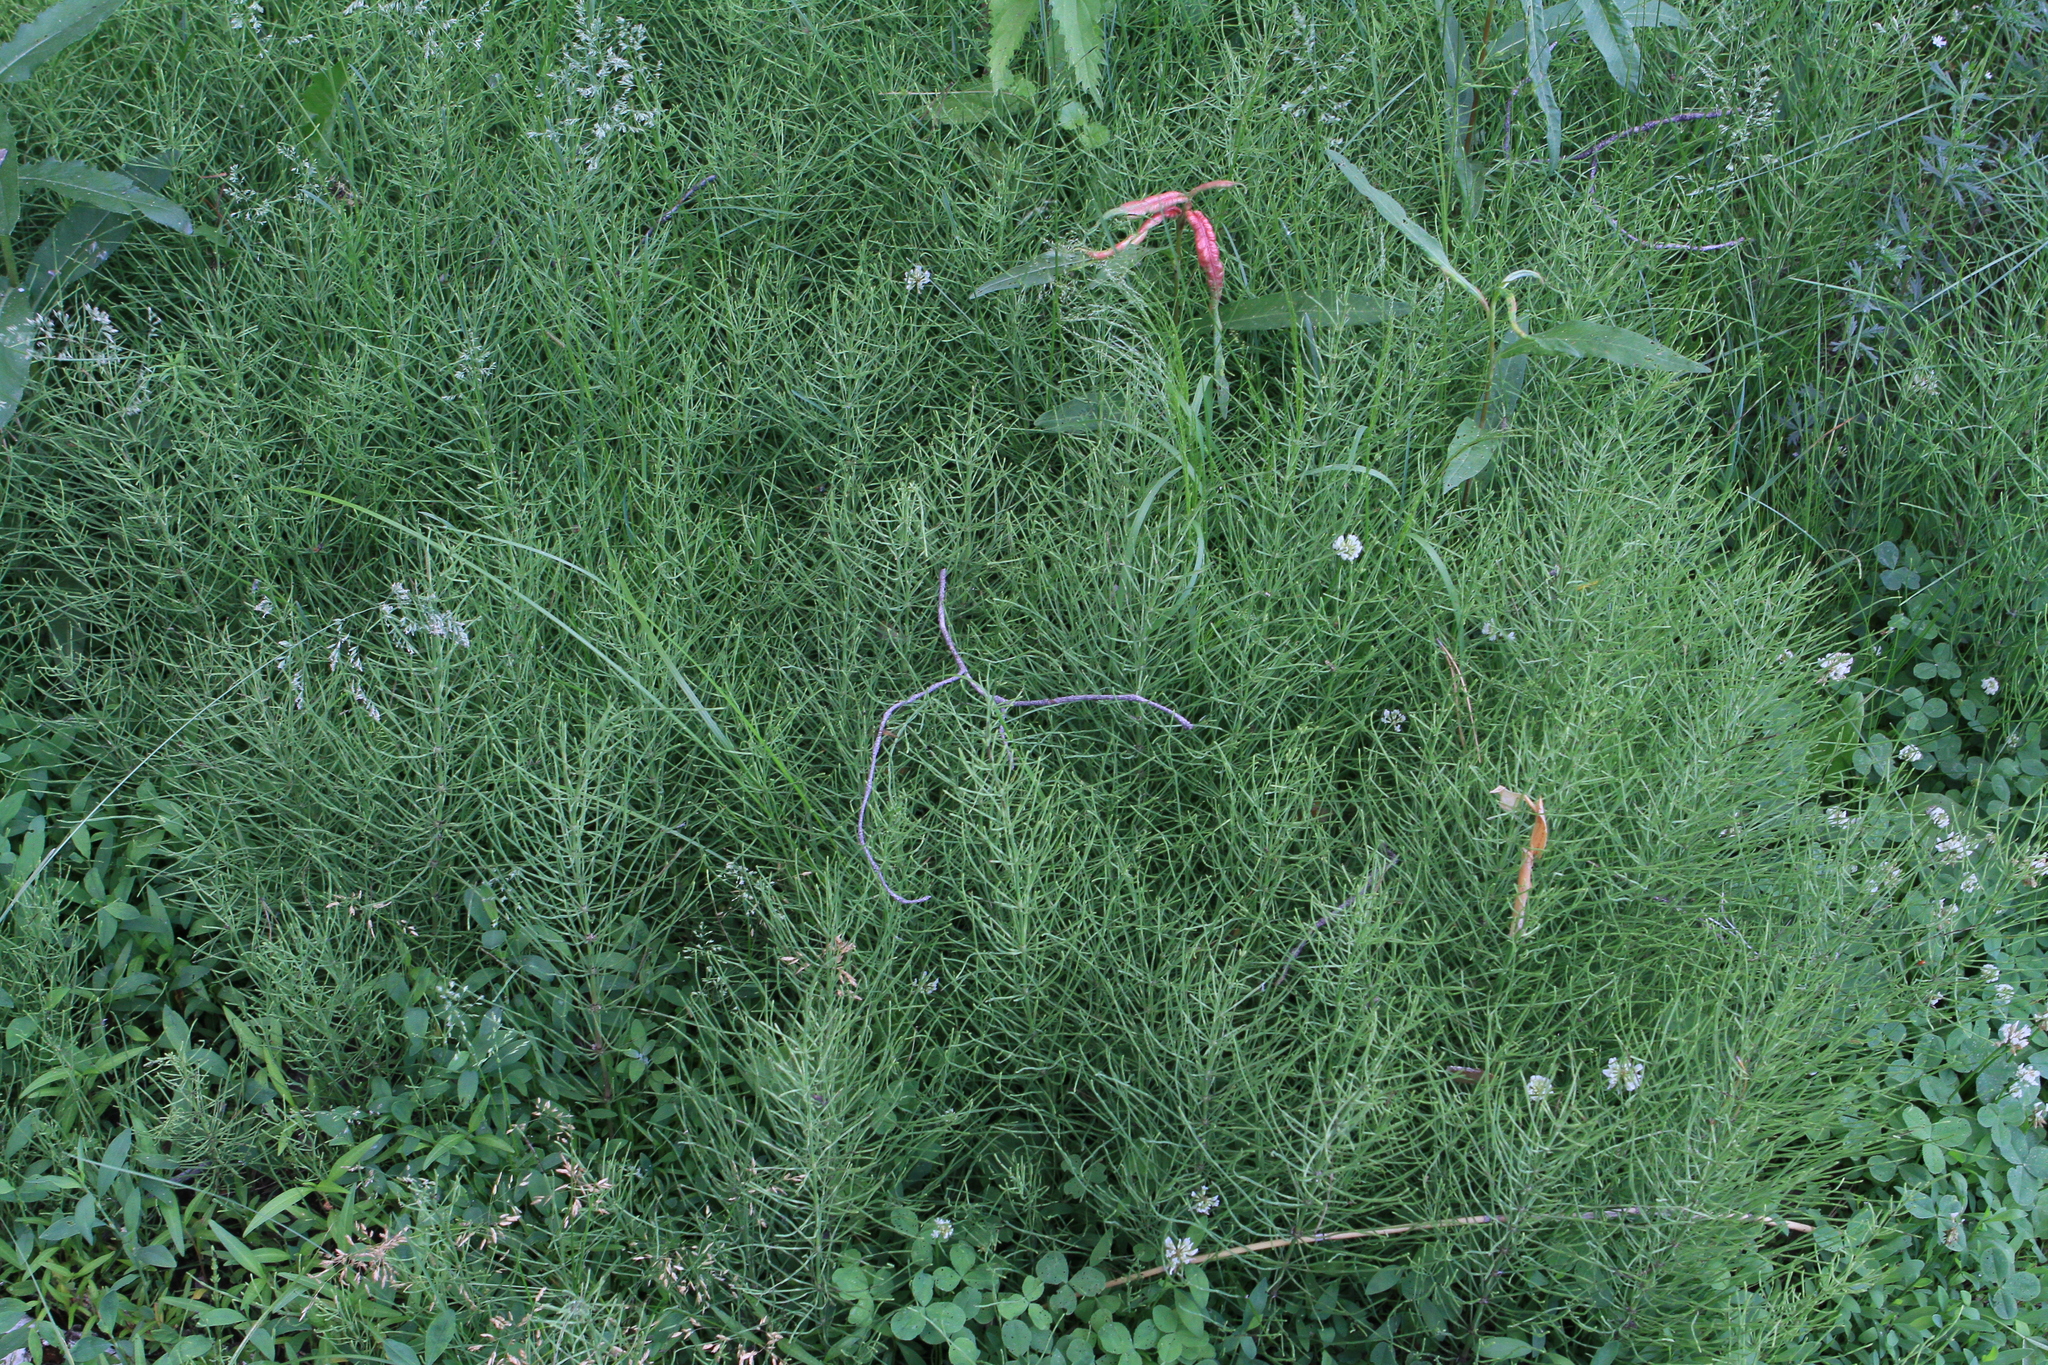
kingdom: Plantae
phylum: Tracheophyta
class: Polypodiopsida
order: Equisetales
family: Equisetaceae
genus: Equisetum
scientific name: Equisetum arvense
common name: Field horsetail
